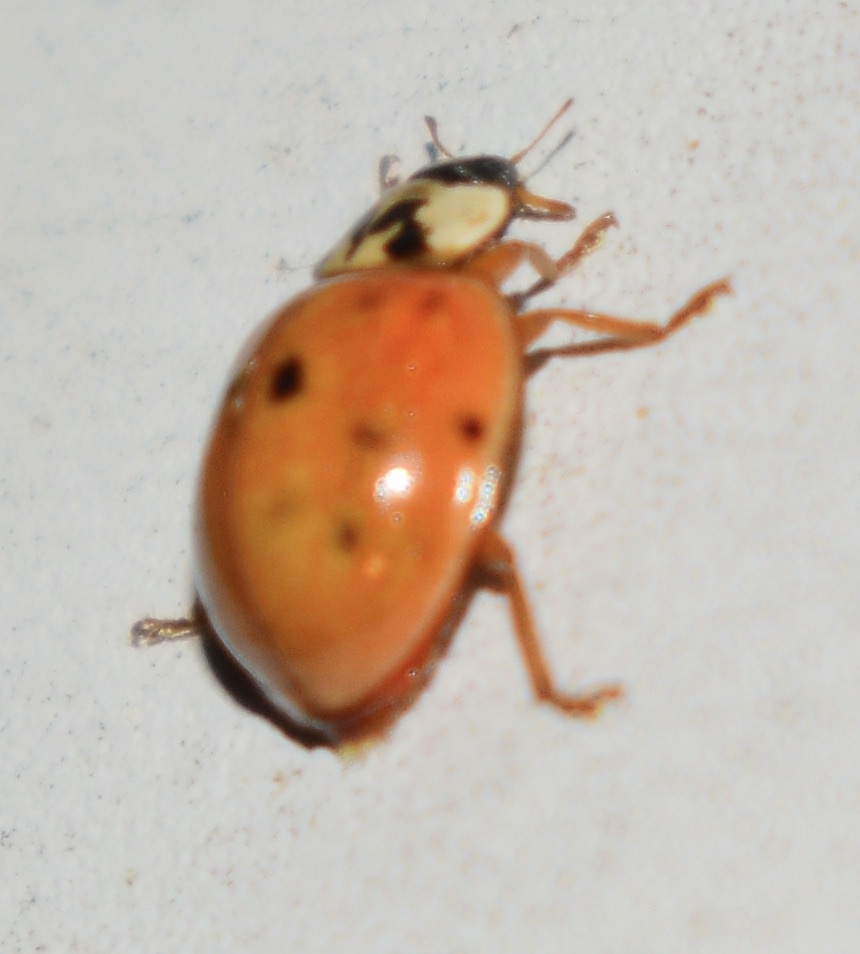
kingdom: Animalia
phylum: Arthropoda
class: Insecta
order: Coleoptera
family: Coccinellidae
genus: Harmonia
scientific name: Harmonia axyridis
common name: Harlequin ladybird
